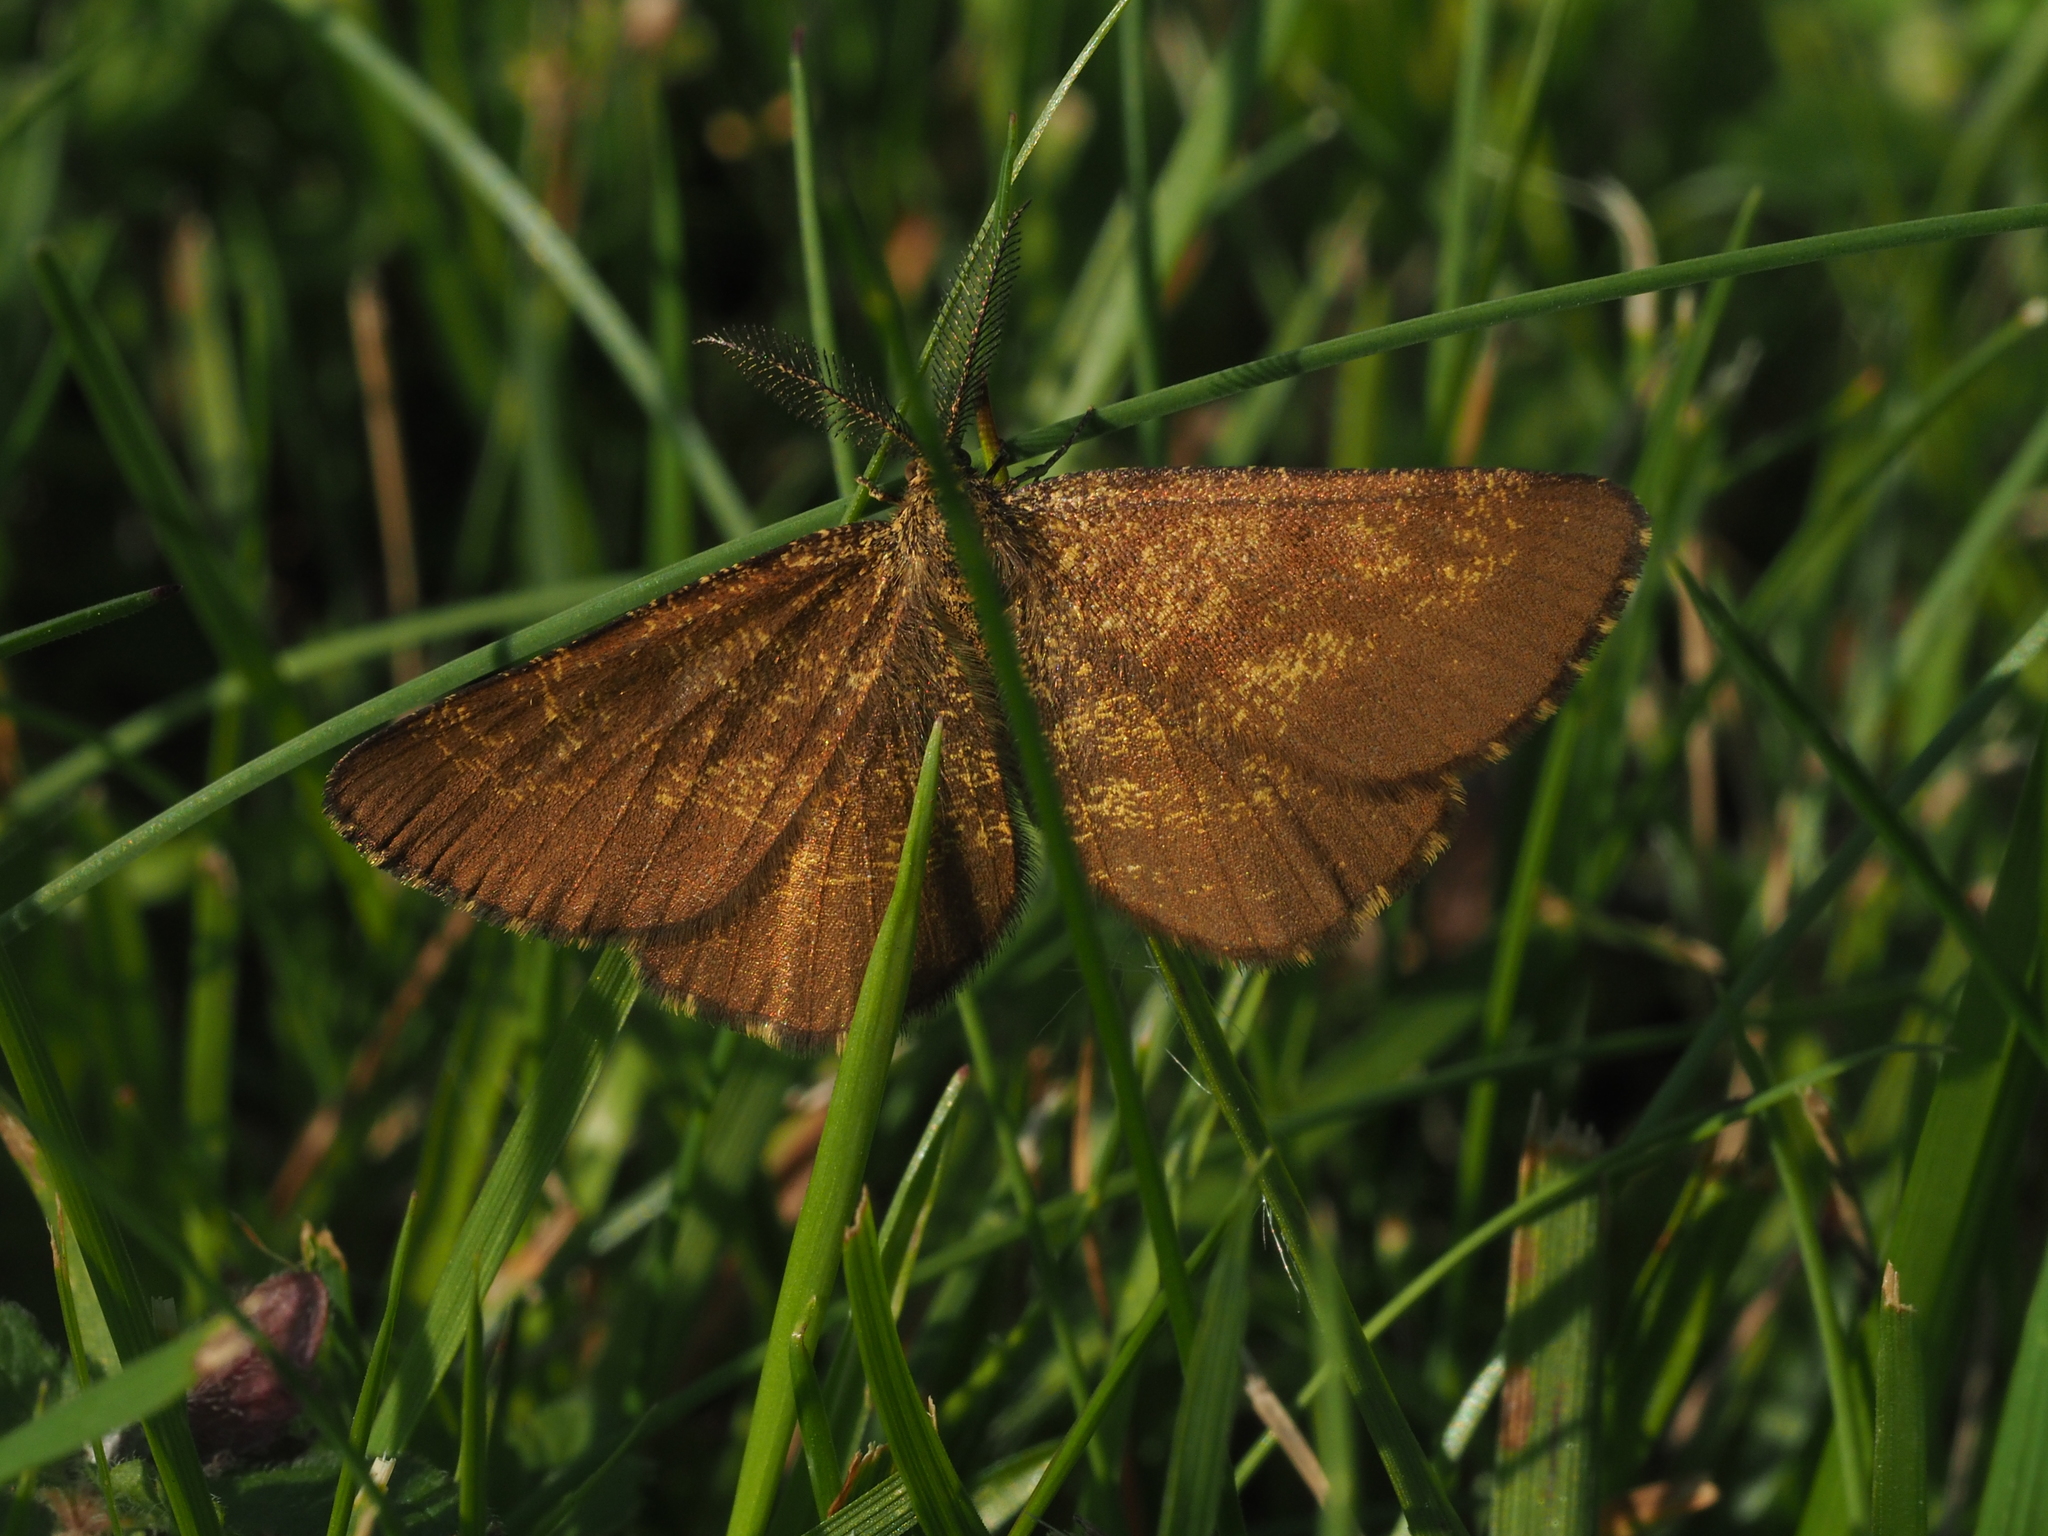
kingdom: Animalia
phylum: Arthropoda
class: Insecta
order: Lepidoptera
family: Geometridae
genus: Ematurga
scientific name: Ematurga atomaria
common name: Common heath
